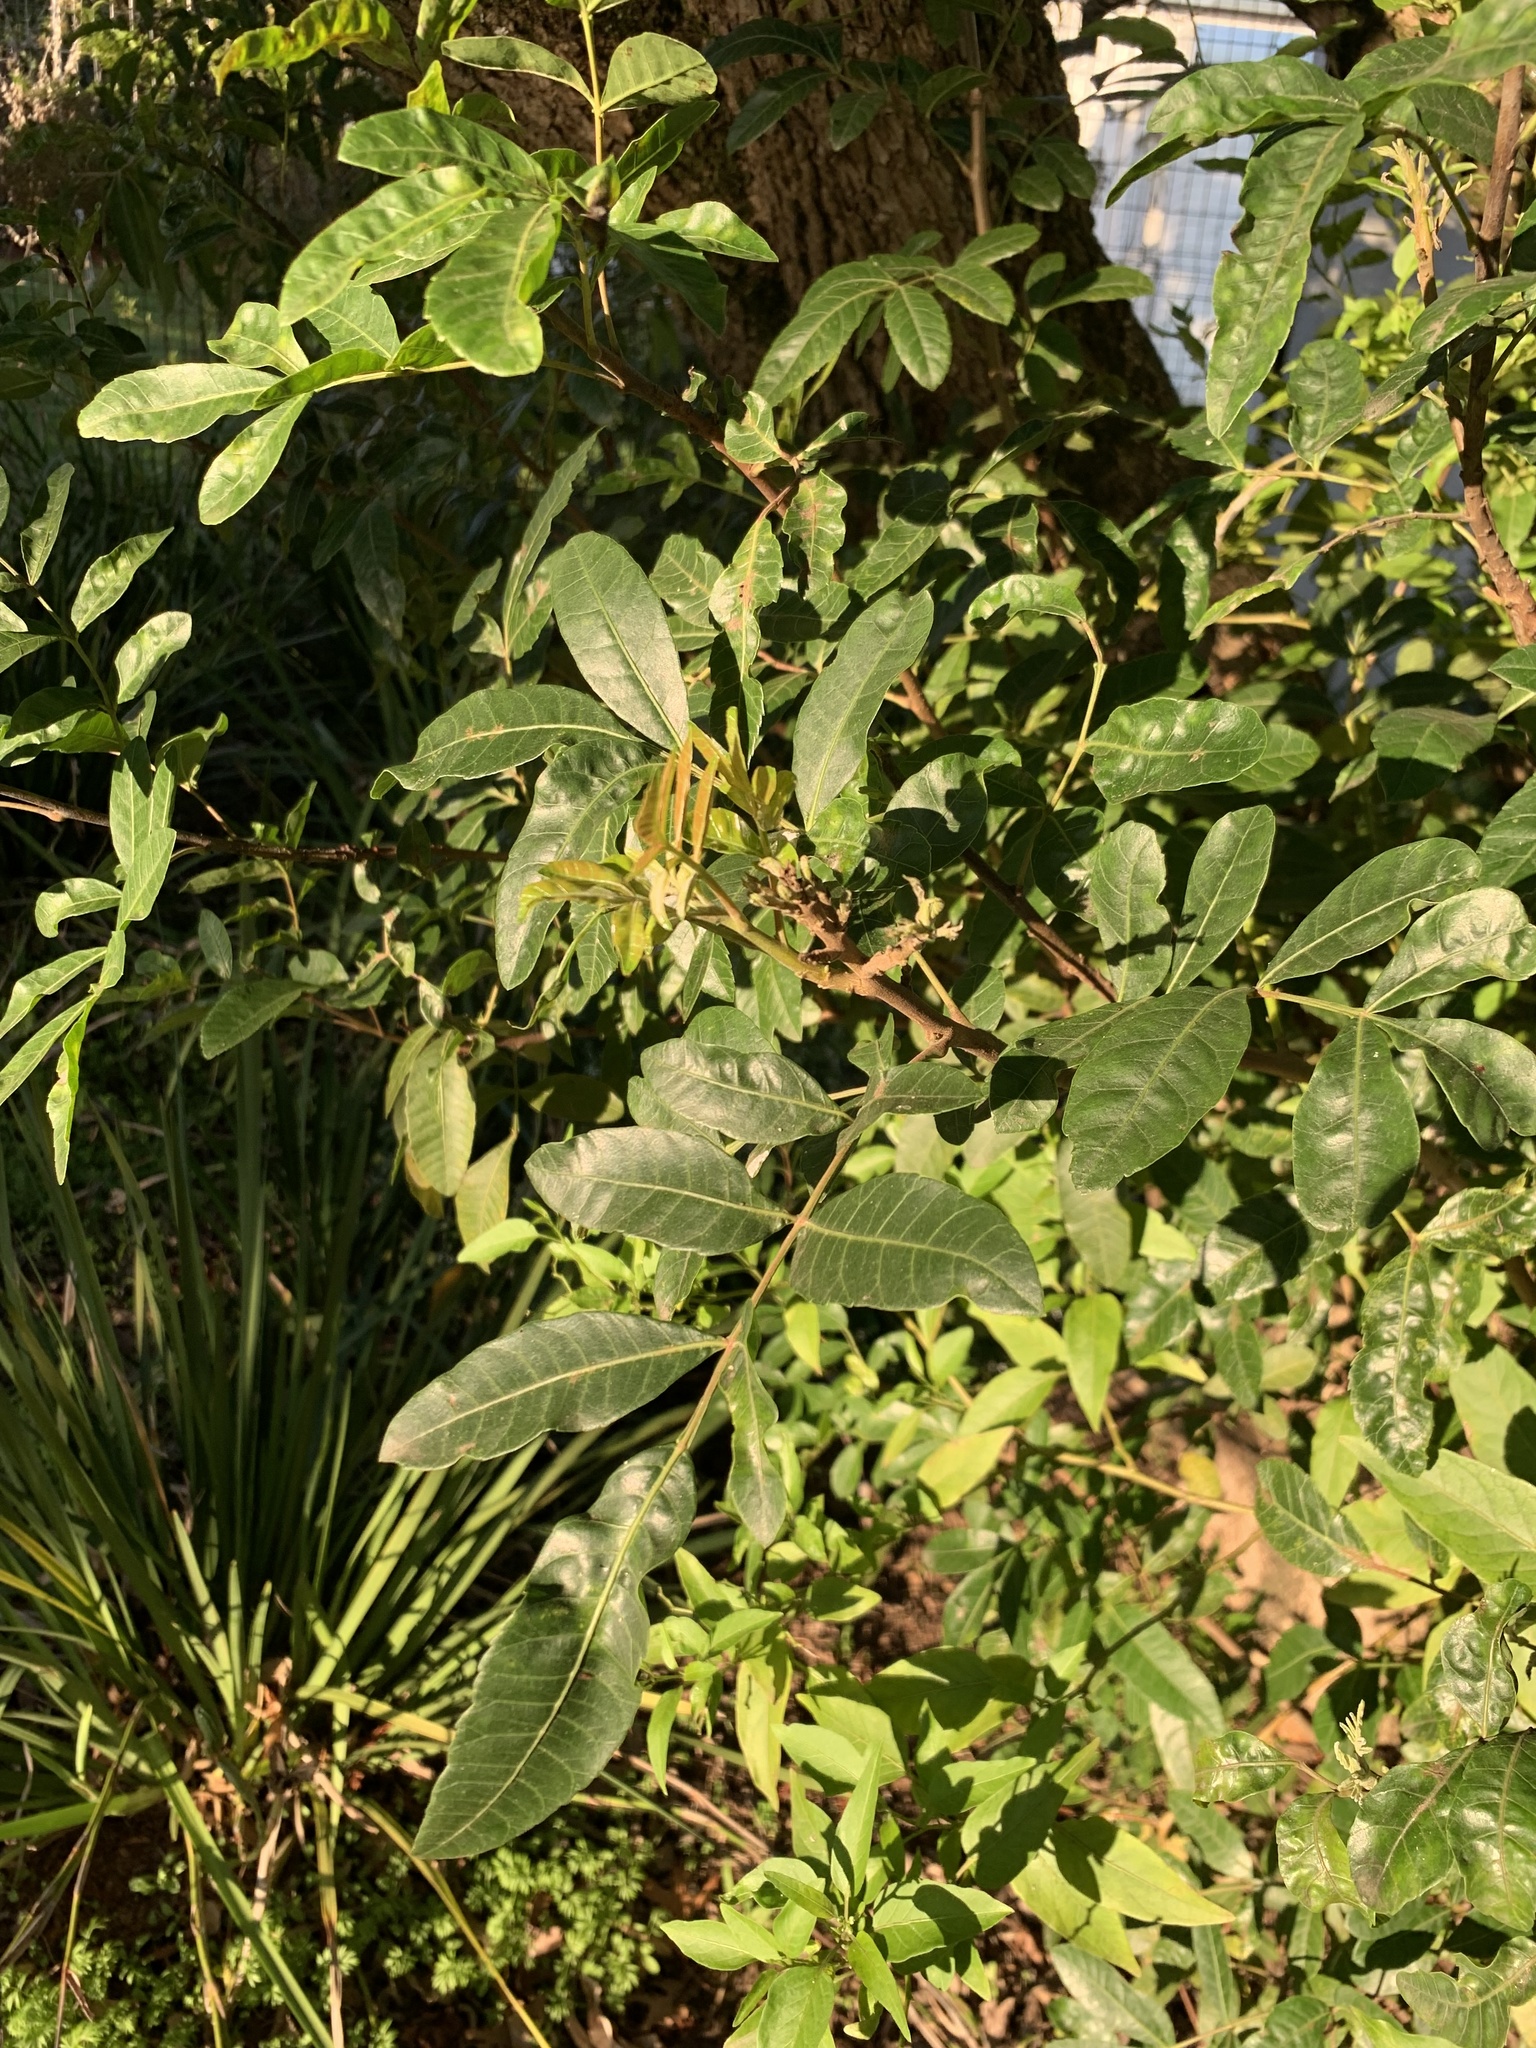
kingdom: Plantae
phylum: Tracheophyta
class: Magnoliopsida
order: Sapindales
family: Anacardiaceae
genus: Schinus
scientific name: Schinus terebinthifolia
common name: Brazilian peppertree
